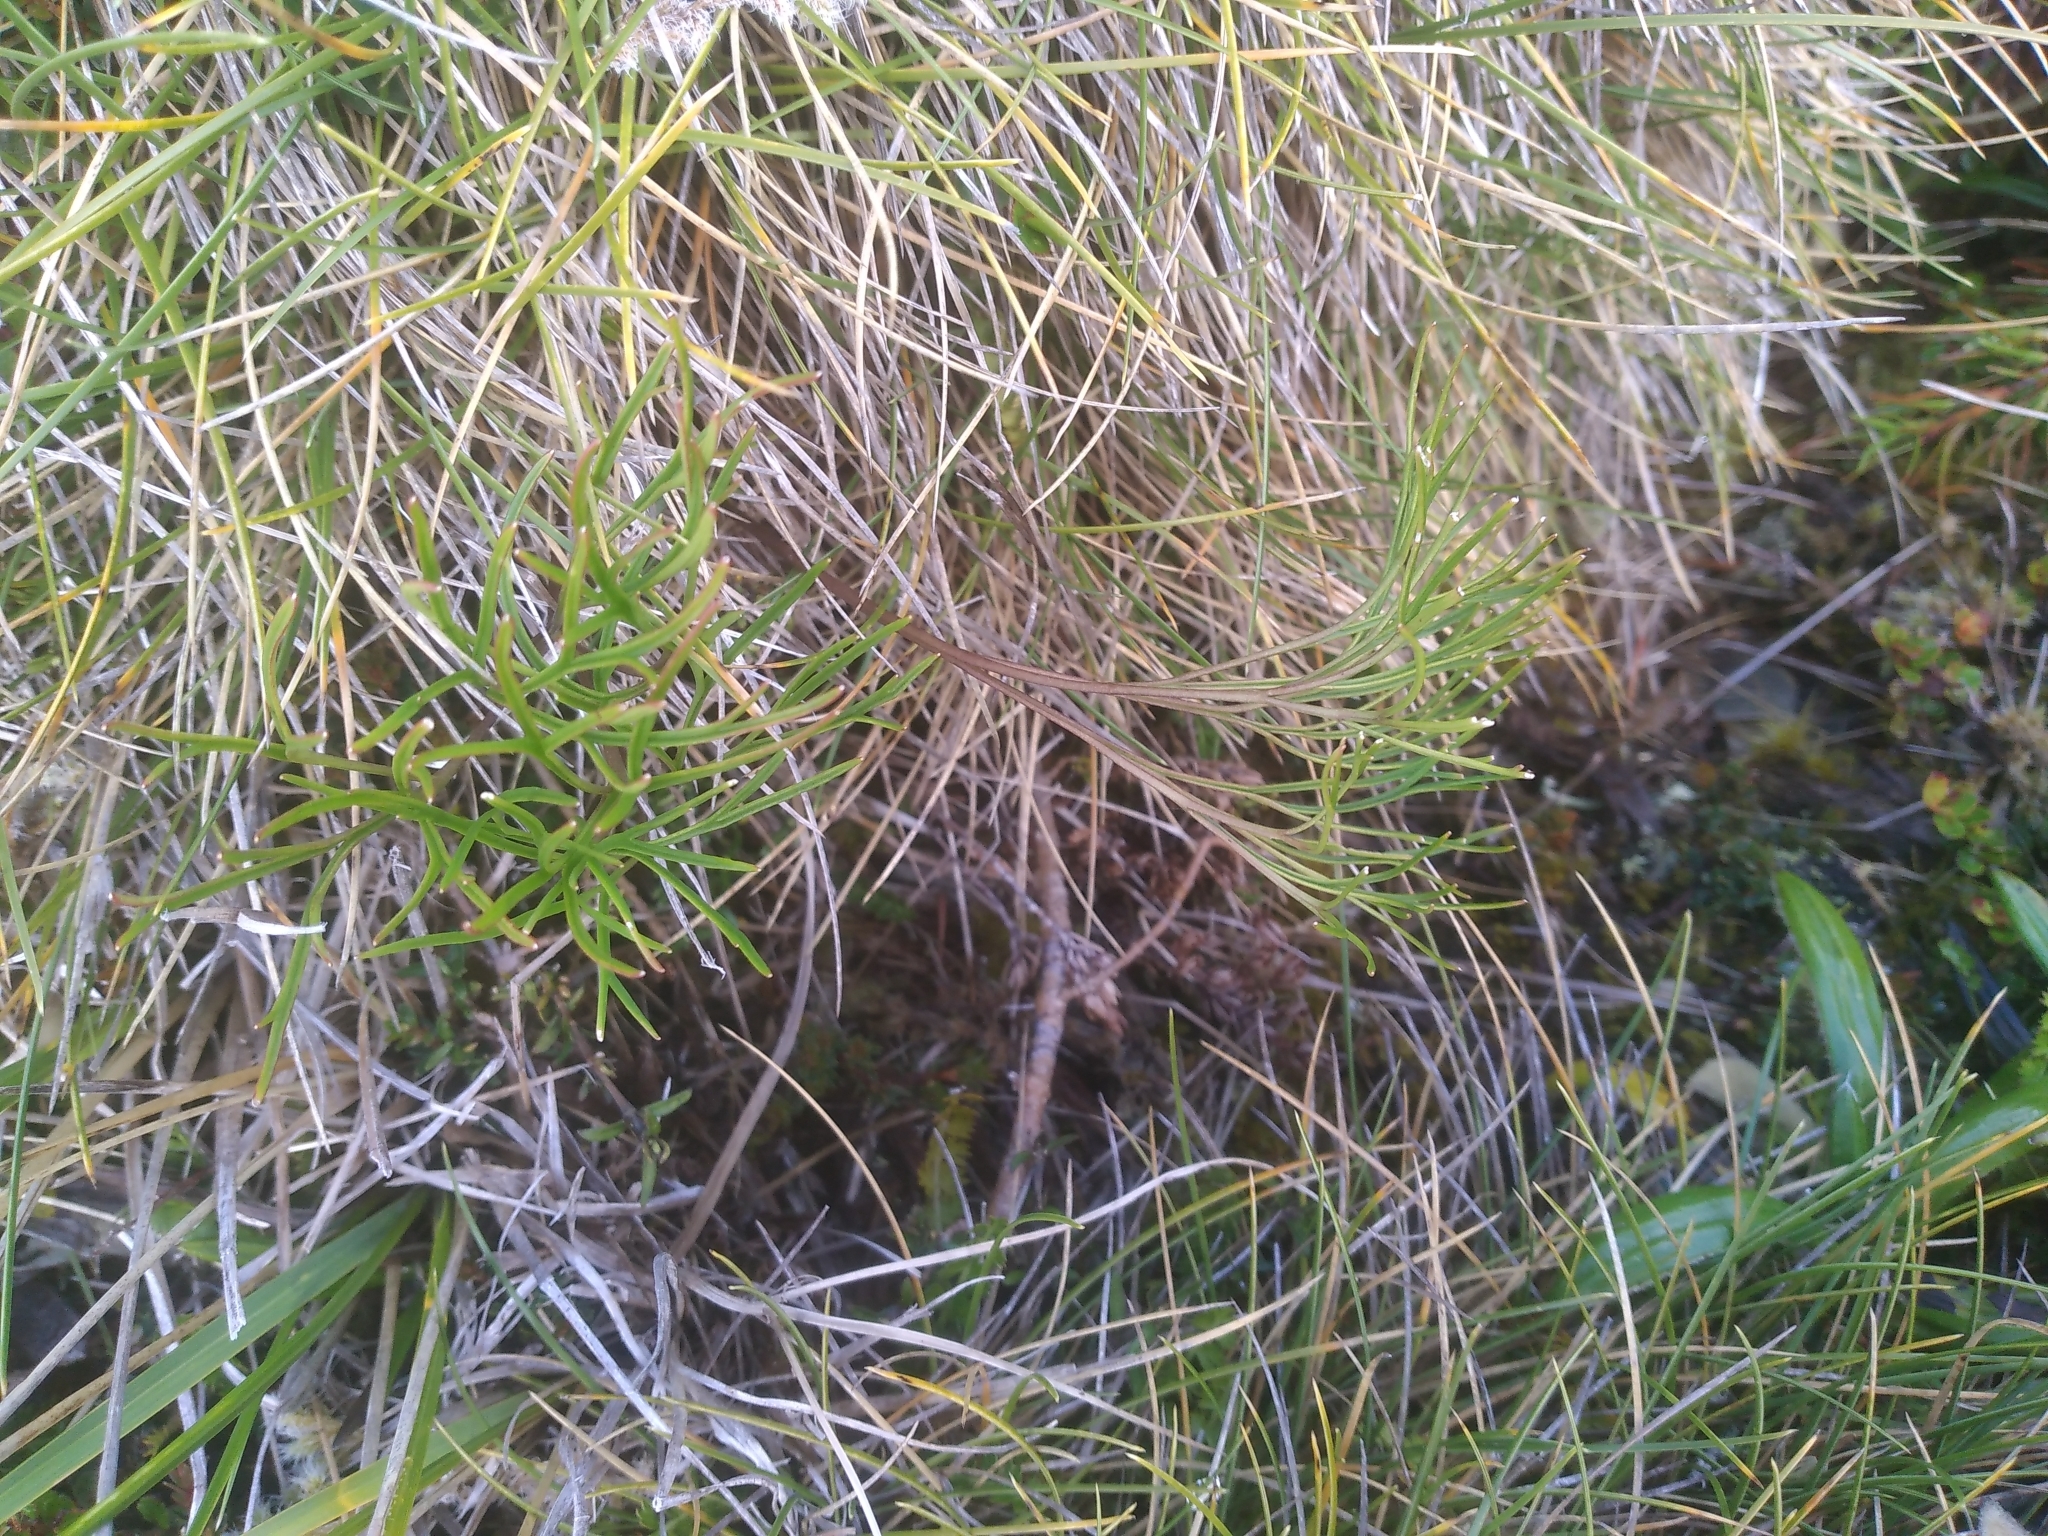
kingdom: Plantae
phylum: Tracheophyta
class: Magnoliopsida
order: Apiales
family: Apiaceae
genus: Anisotome
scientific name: Anisotome filifolia
